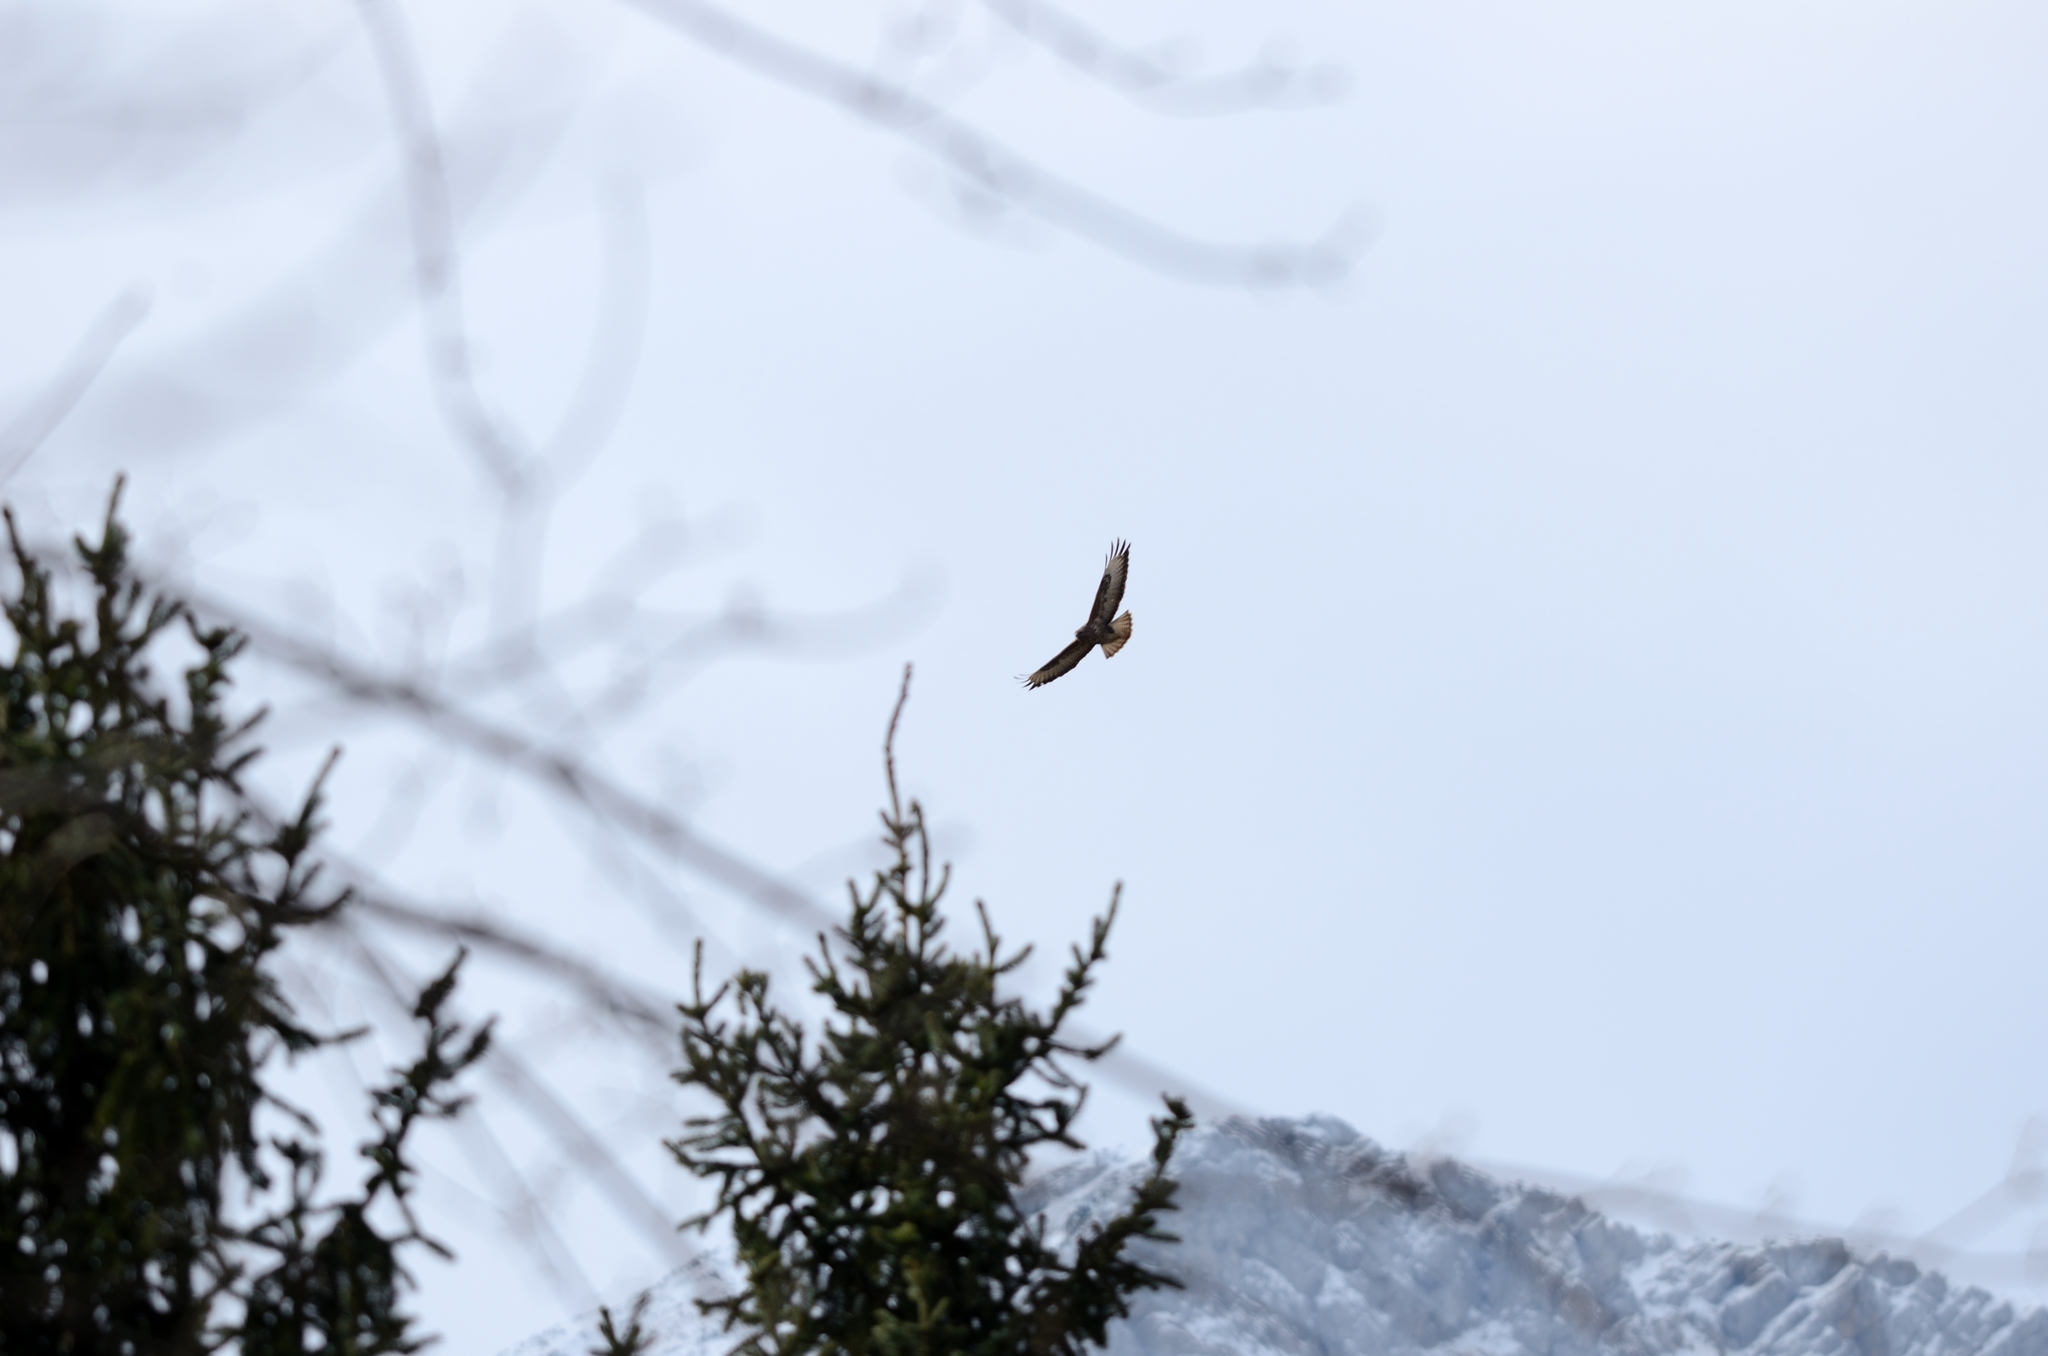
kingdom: Animalia
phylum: Chordata
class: Aves
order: Accipitriformes
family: Accipitridae
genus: Buteo
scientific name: Buteo buteo
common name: Common buzzard
